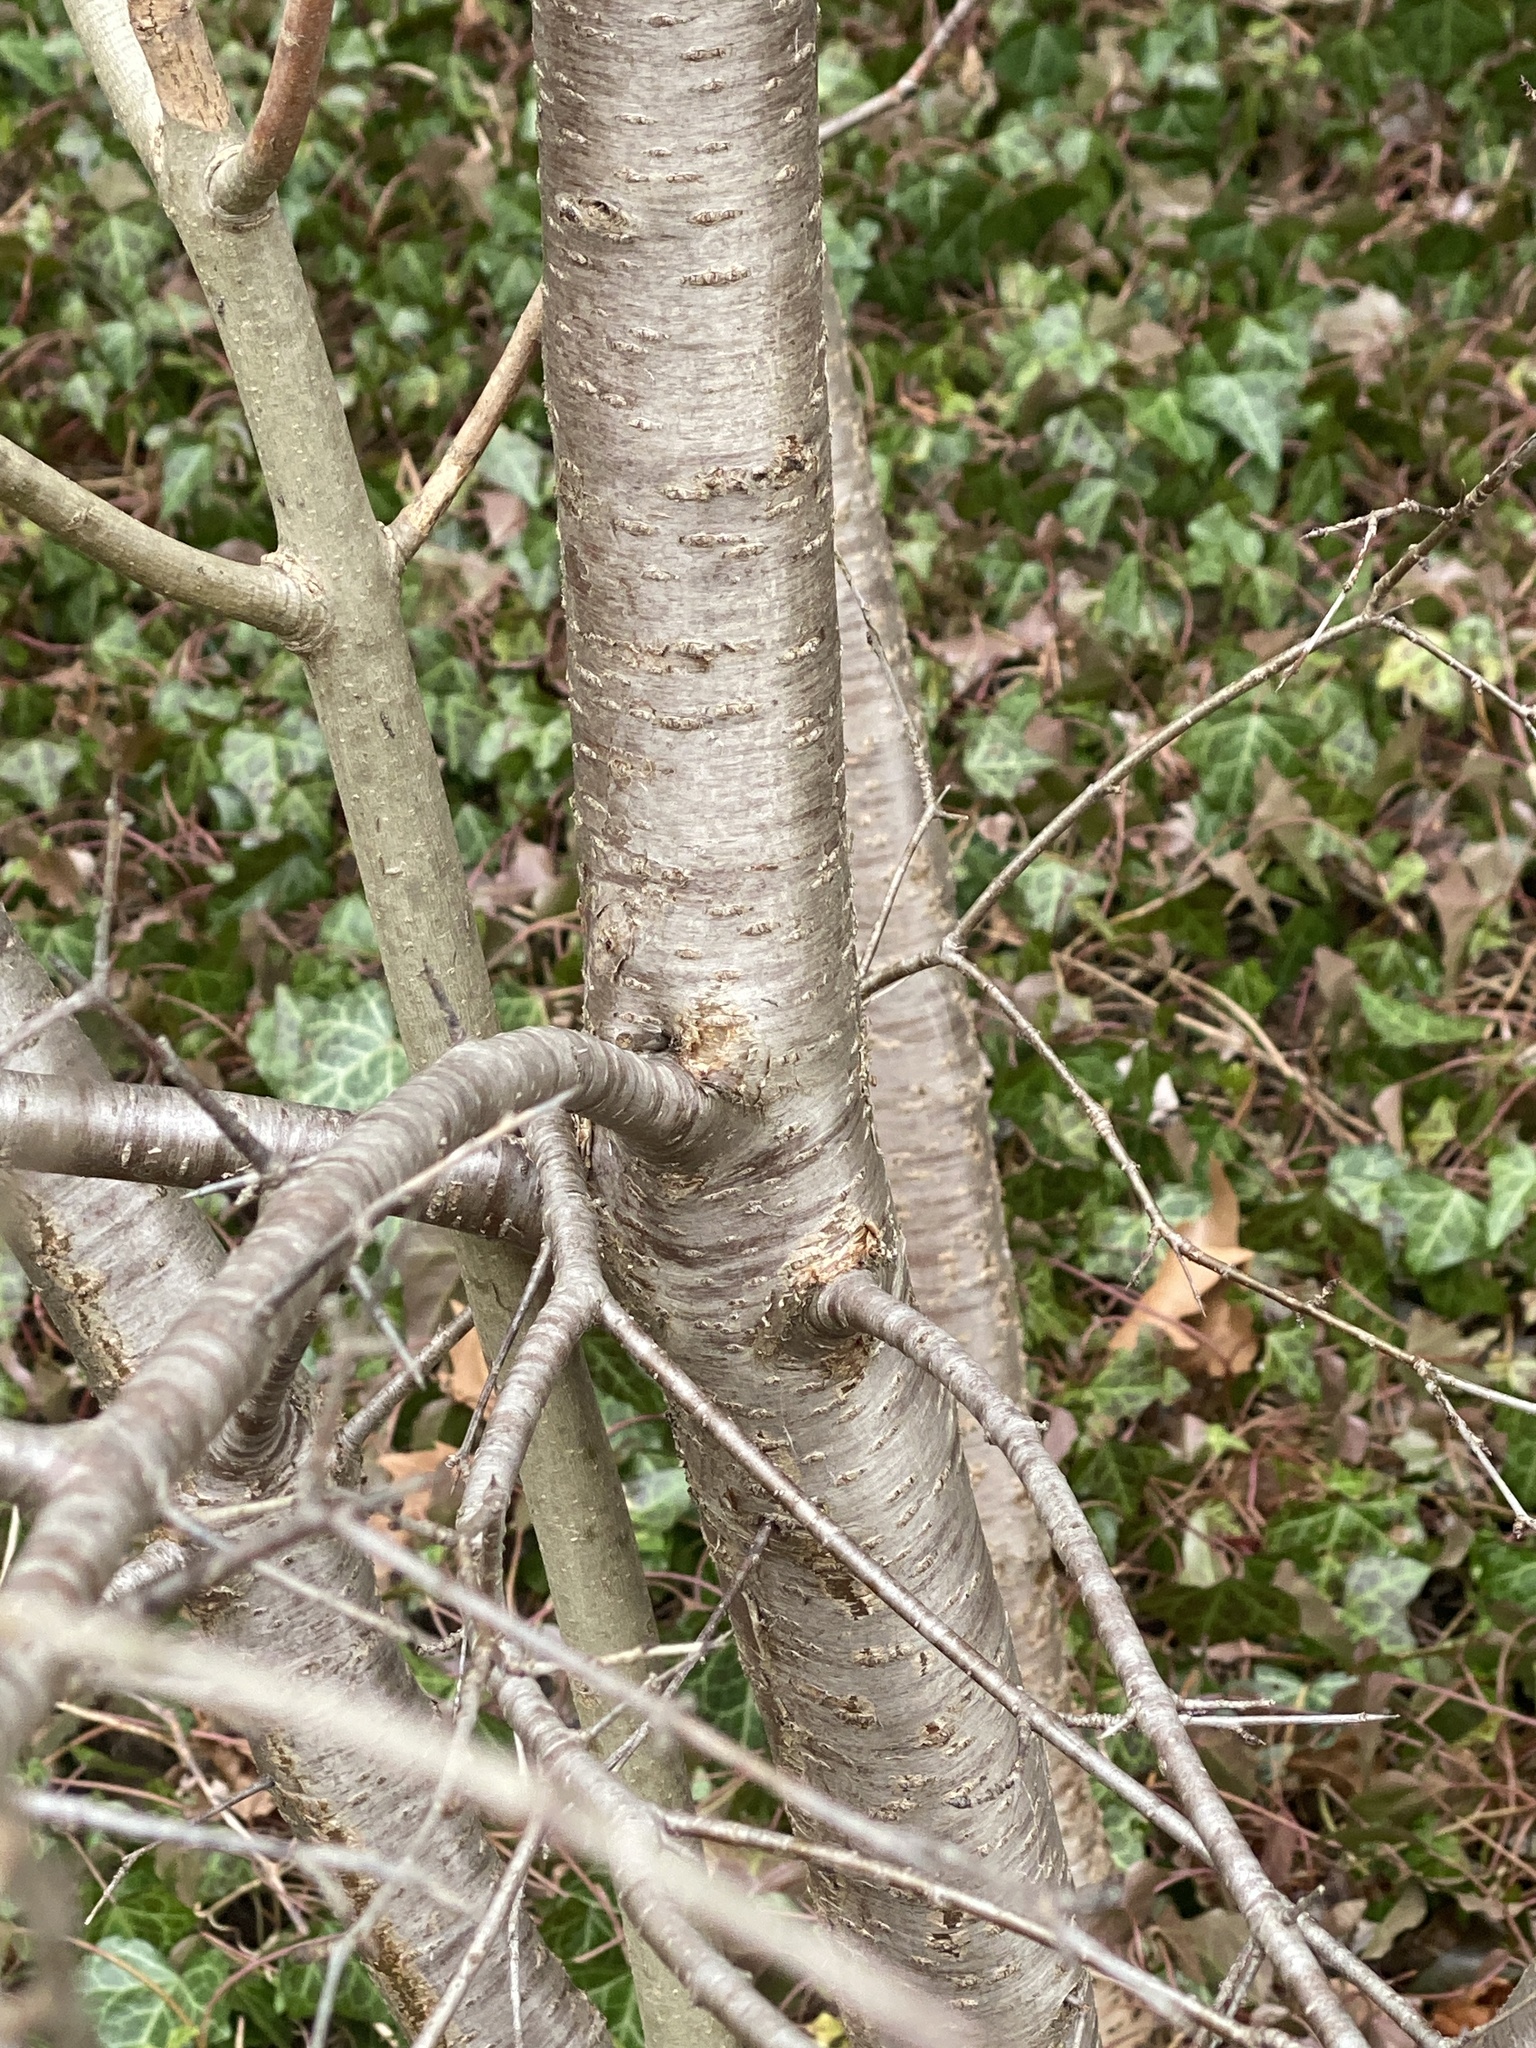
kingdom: Plantae
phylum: Tracheophyta
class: Magnoliopsida
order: Rosales
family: Rhamnaceae
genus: Rhamnus
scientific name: Rhamnus cathartica
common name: Common buckthorn
